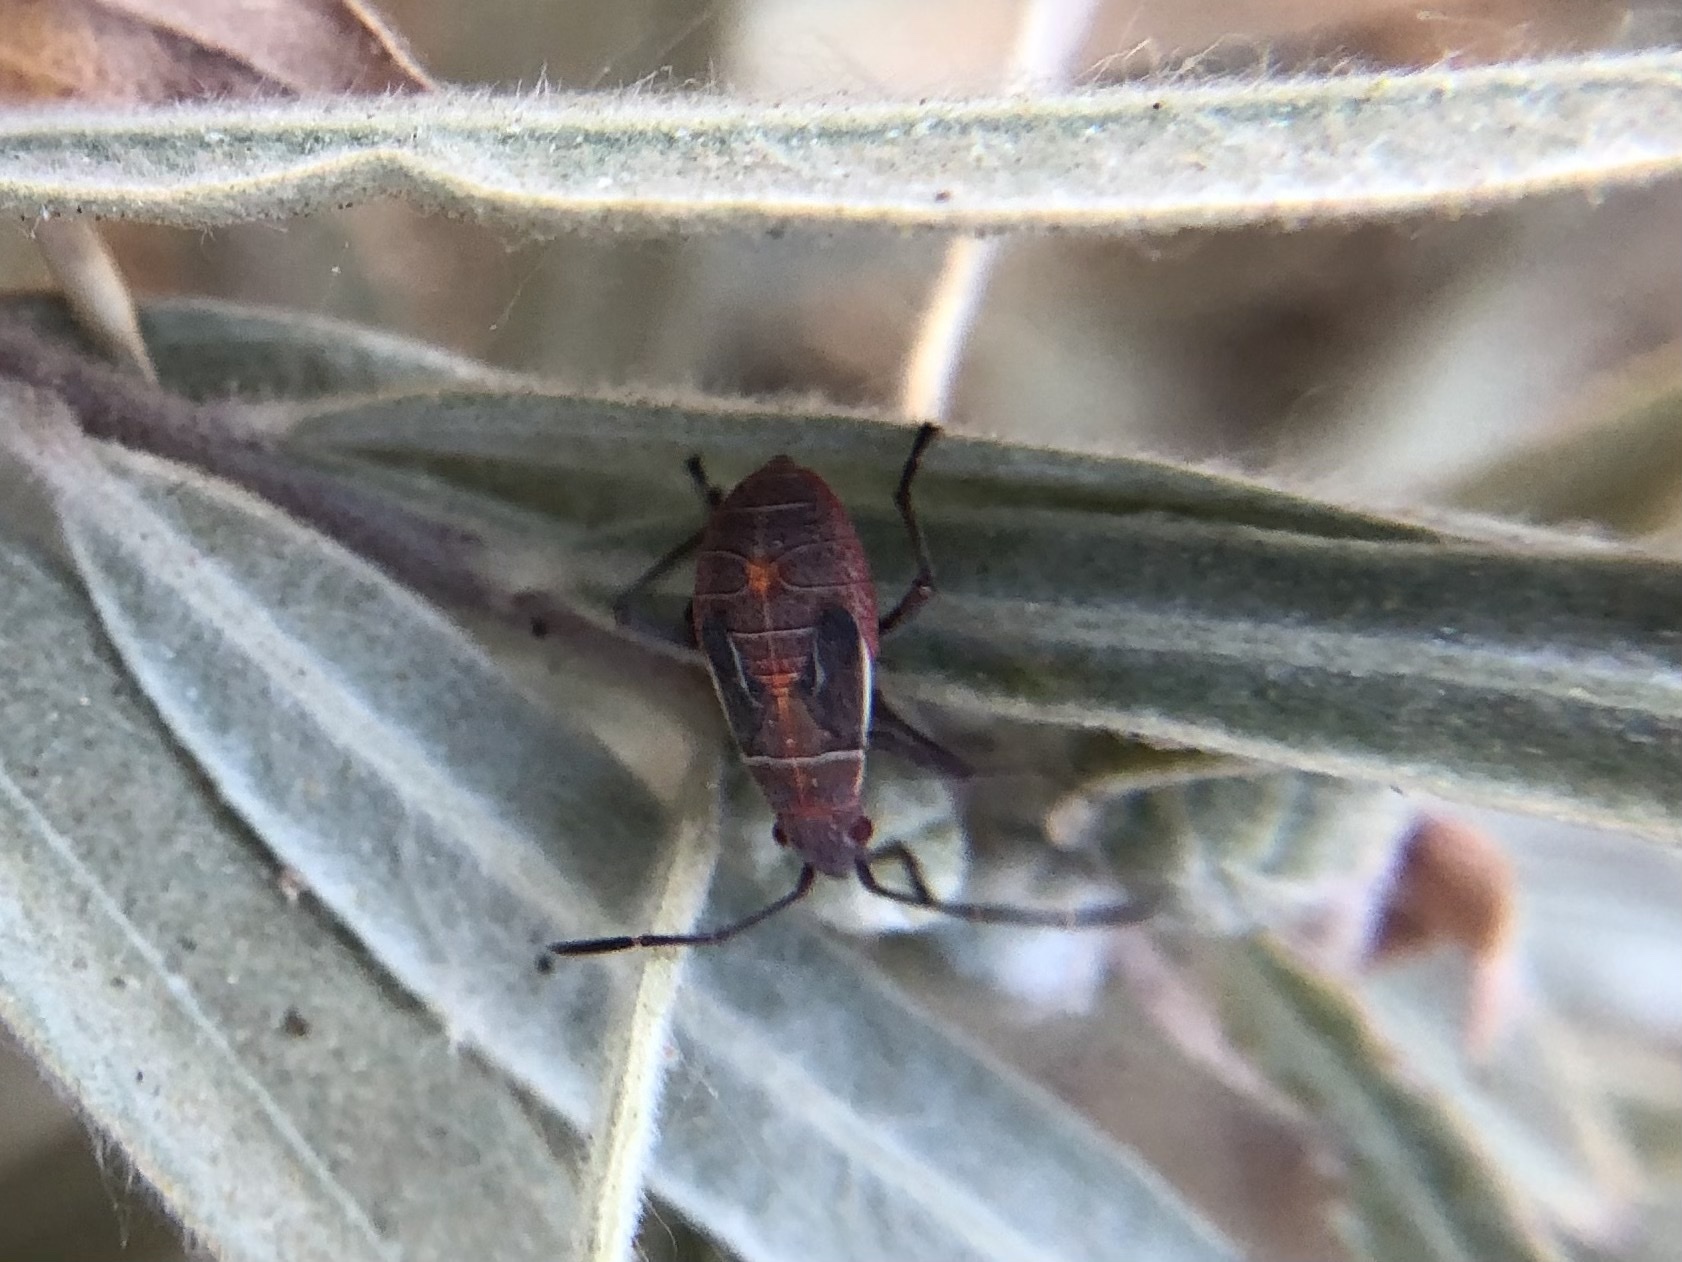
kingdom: Animalia
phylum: Arthropoda
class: Insecta
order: Hemiptera
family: Rhopalidae
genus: Boisea
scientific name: Boisea rubrolineata
